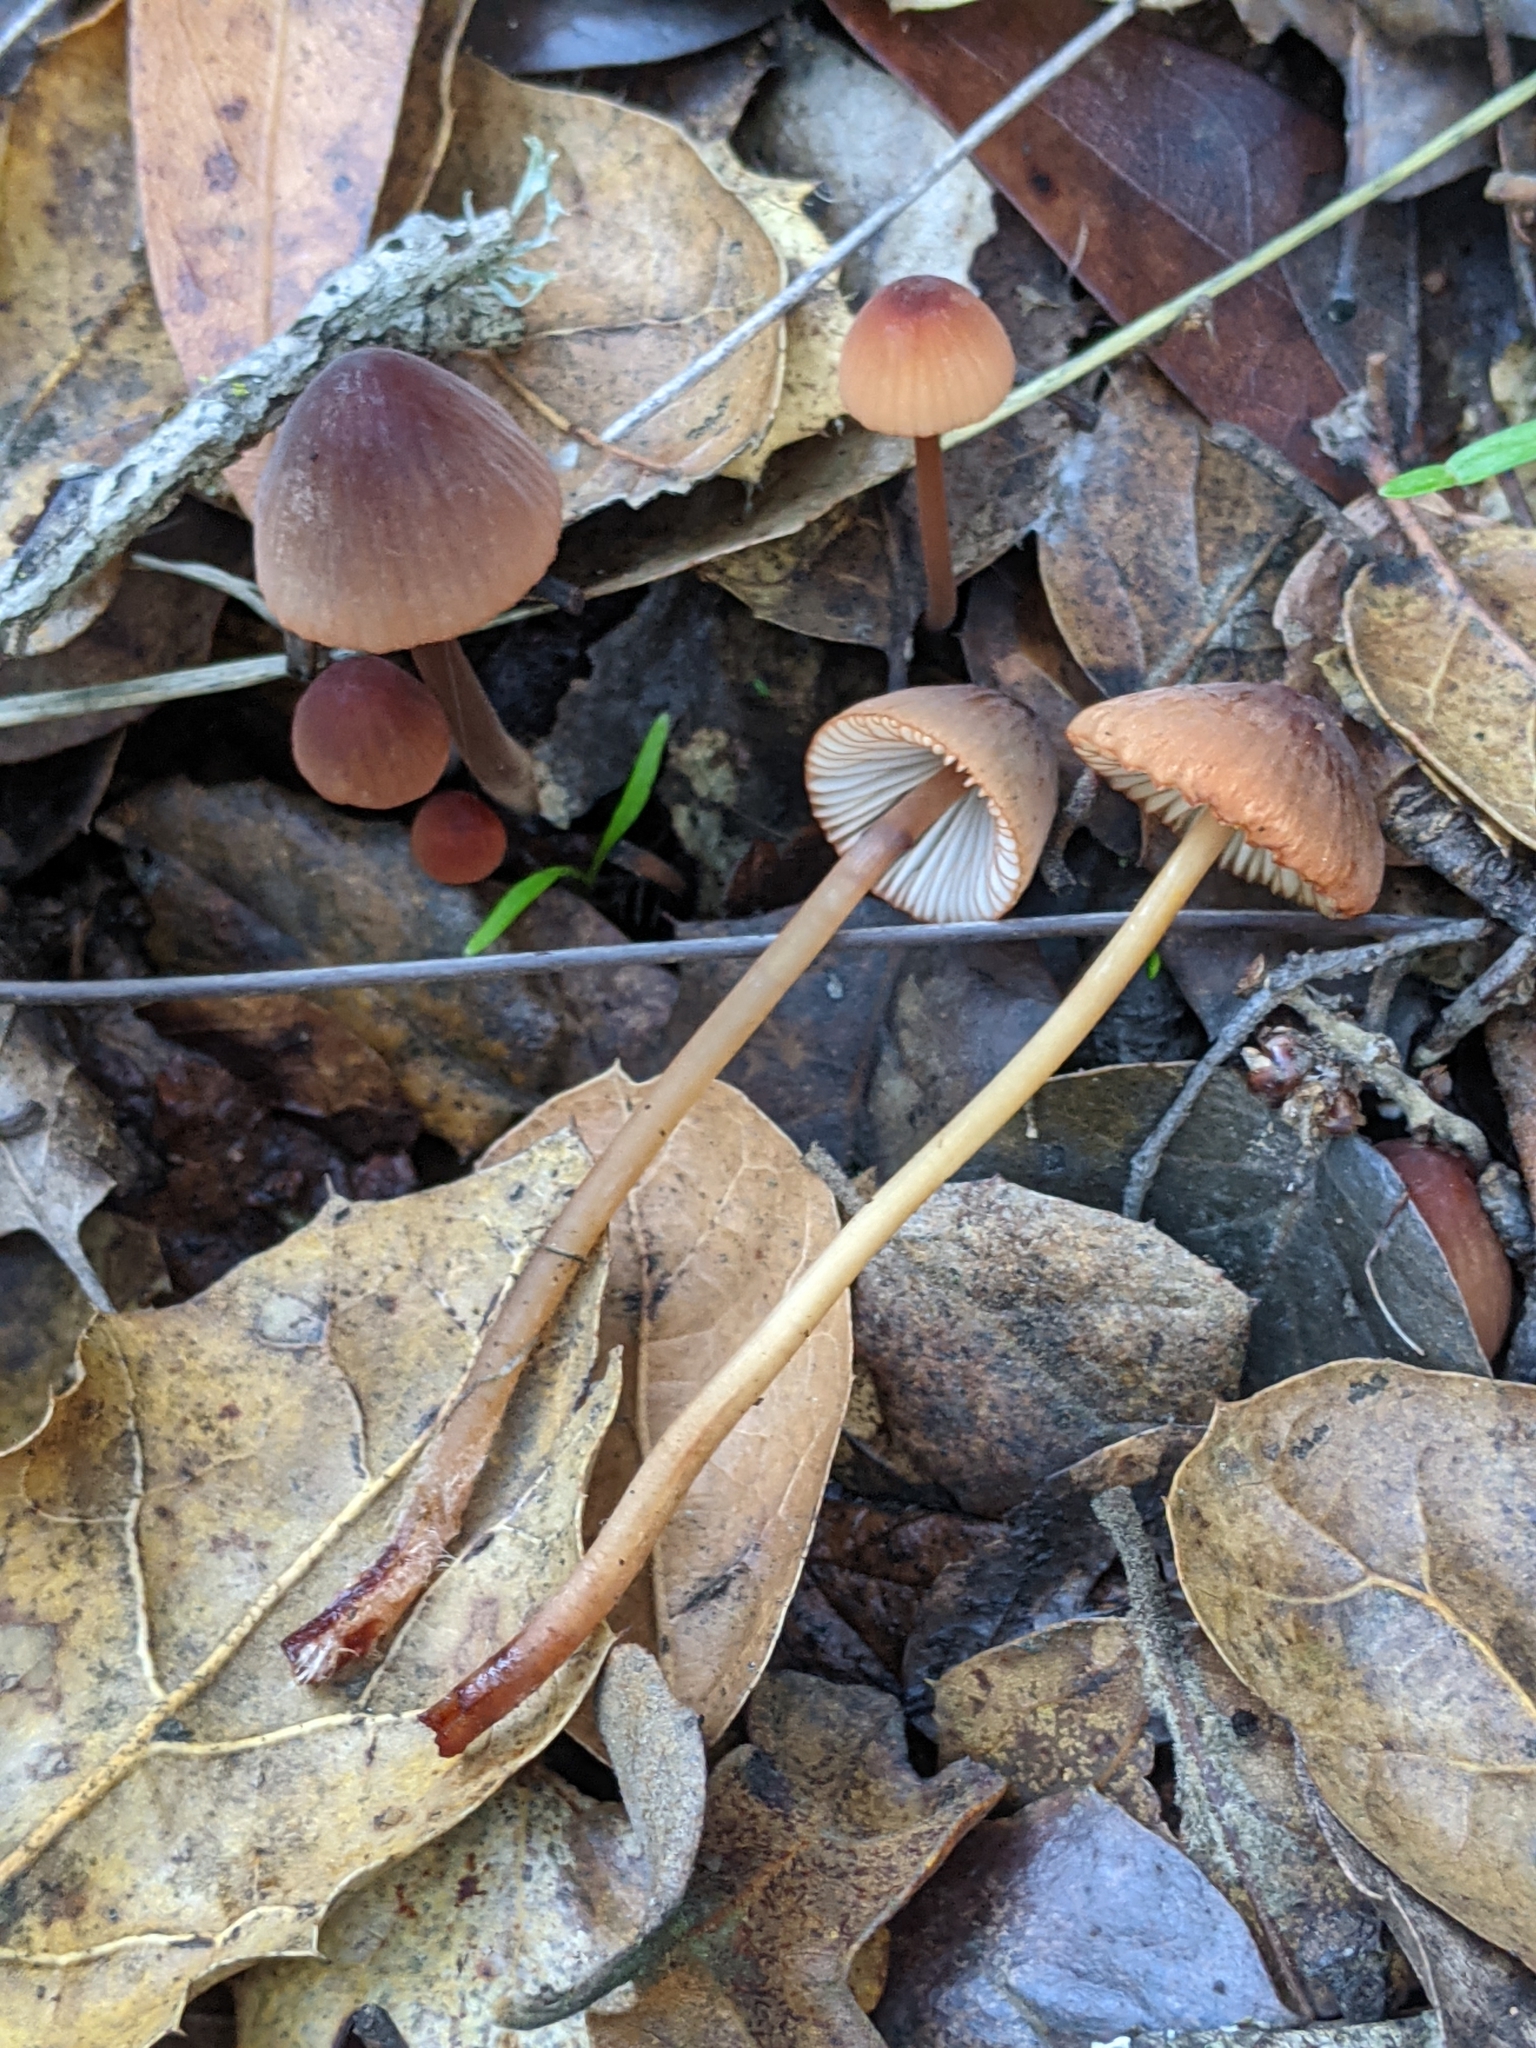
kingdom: Fungi
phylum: Basidiomycota
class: Agaricomycetes
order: Agaricales
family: Mycenaceae
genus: Mycena
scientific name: Mycena
